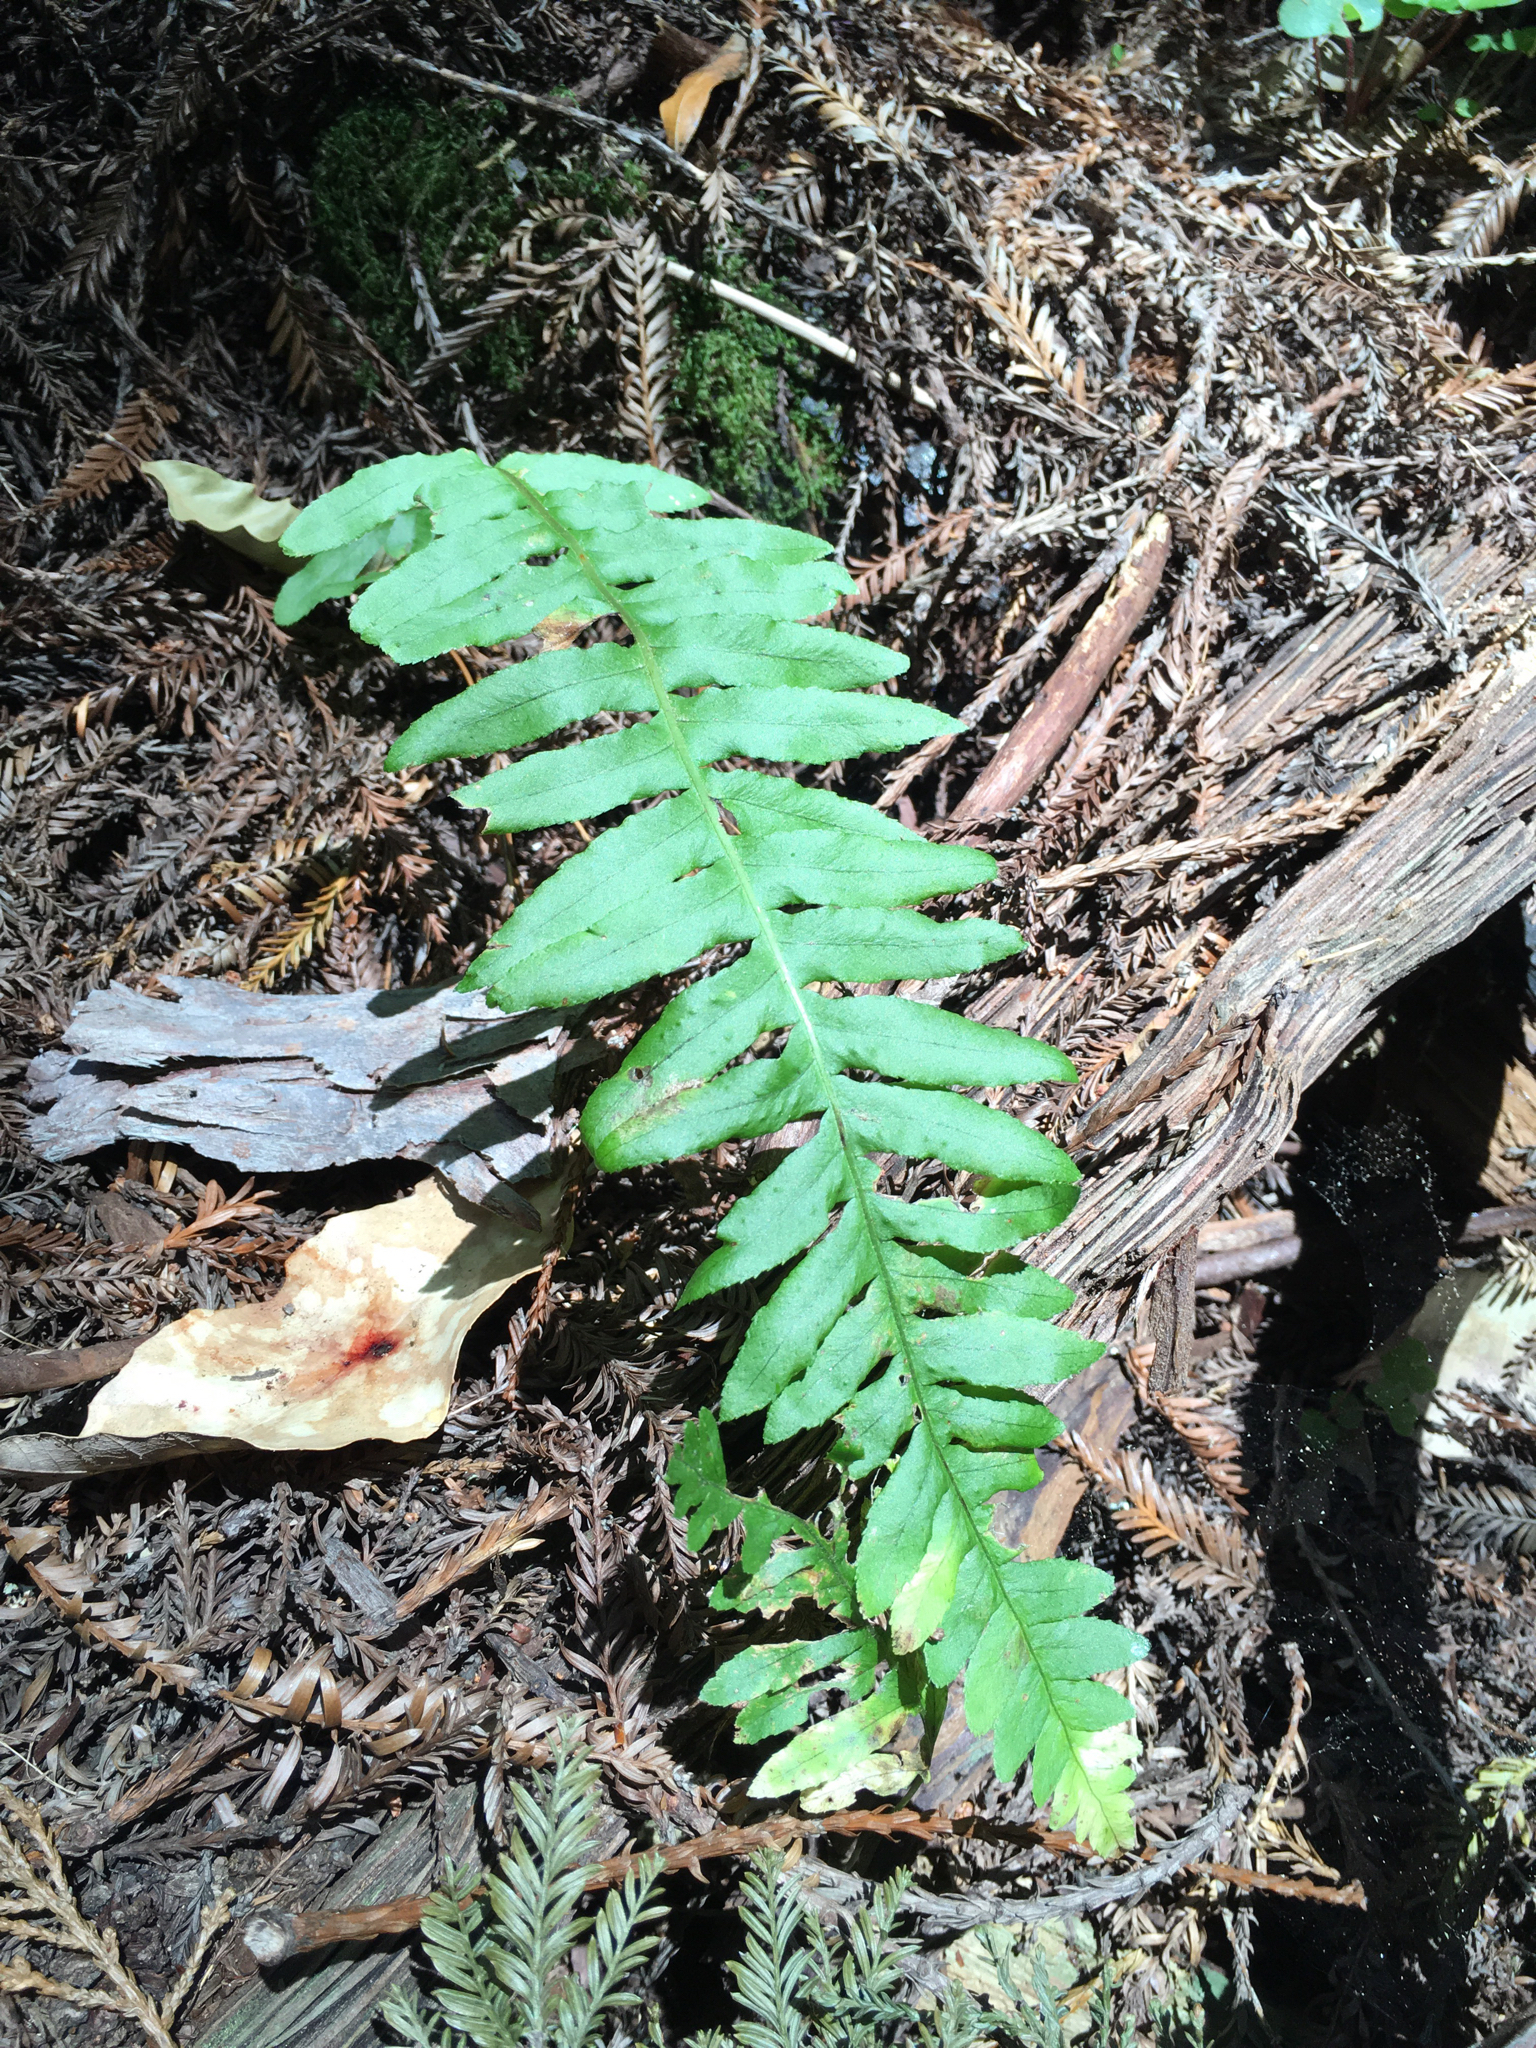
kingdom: Plantae
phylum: Tracheophyta
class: Polypodiopsida
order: Polypodiales
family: Polypodiaceae
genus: Polypodium
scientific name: Polypodium californicum
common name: California polypody
